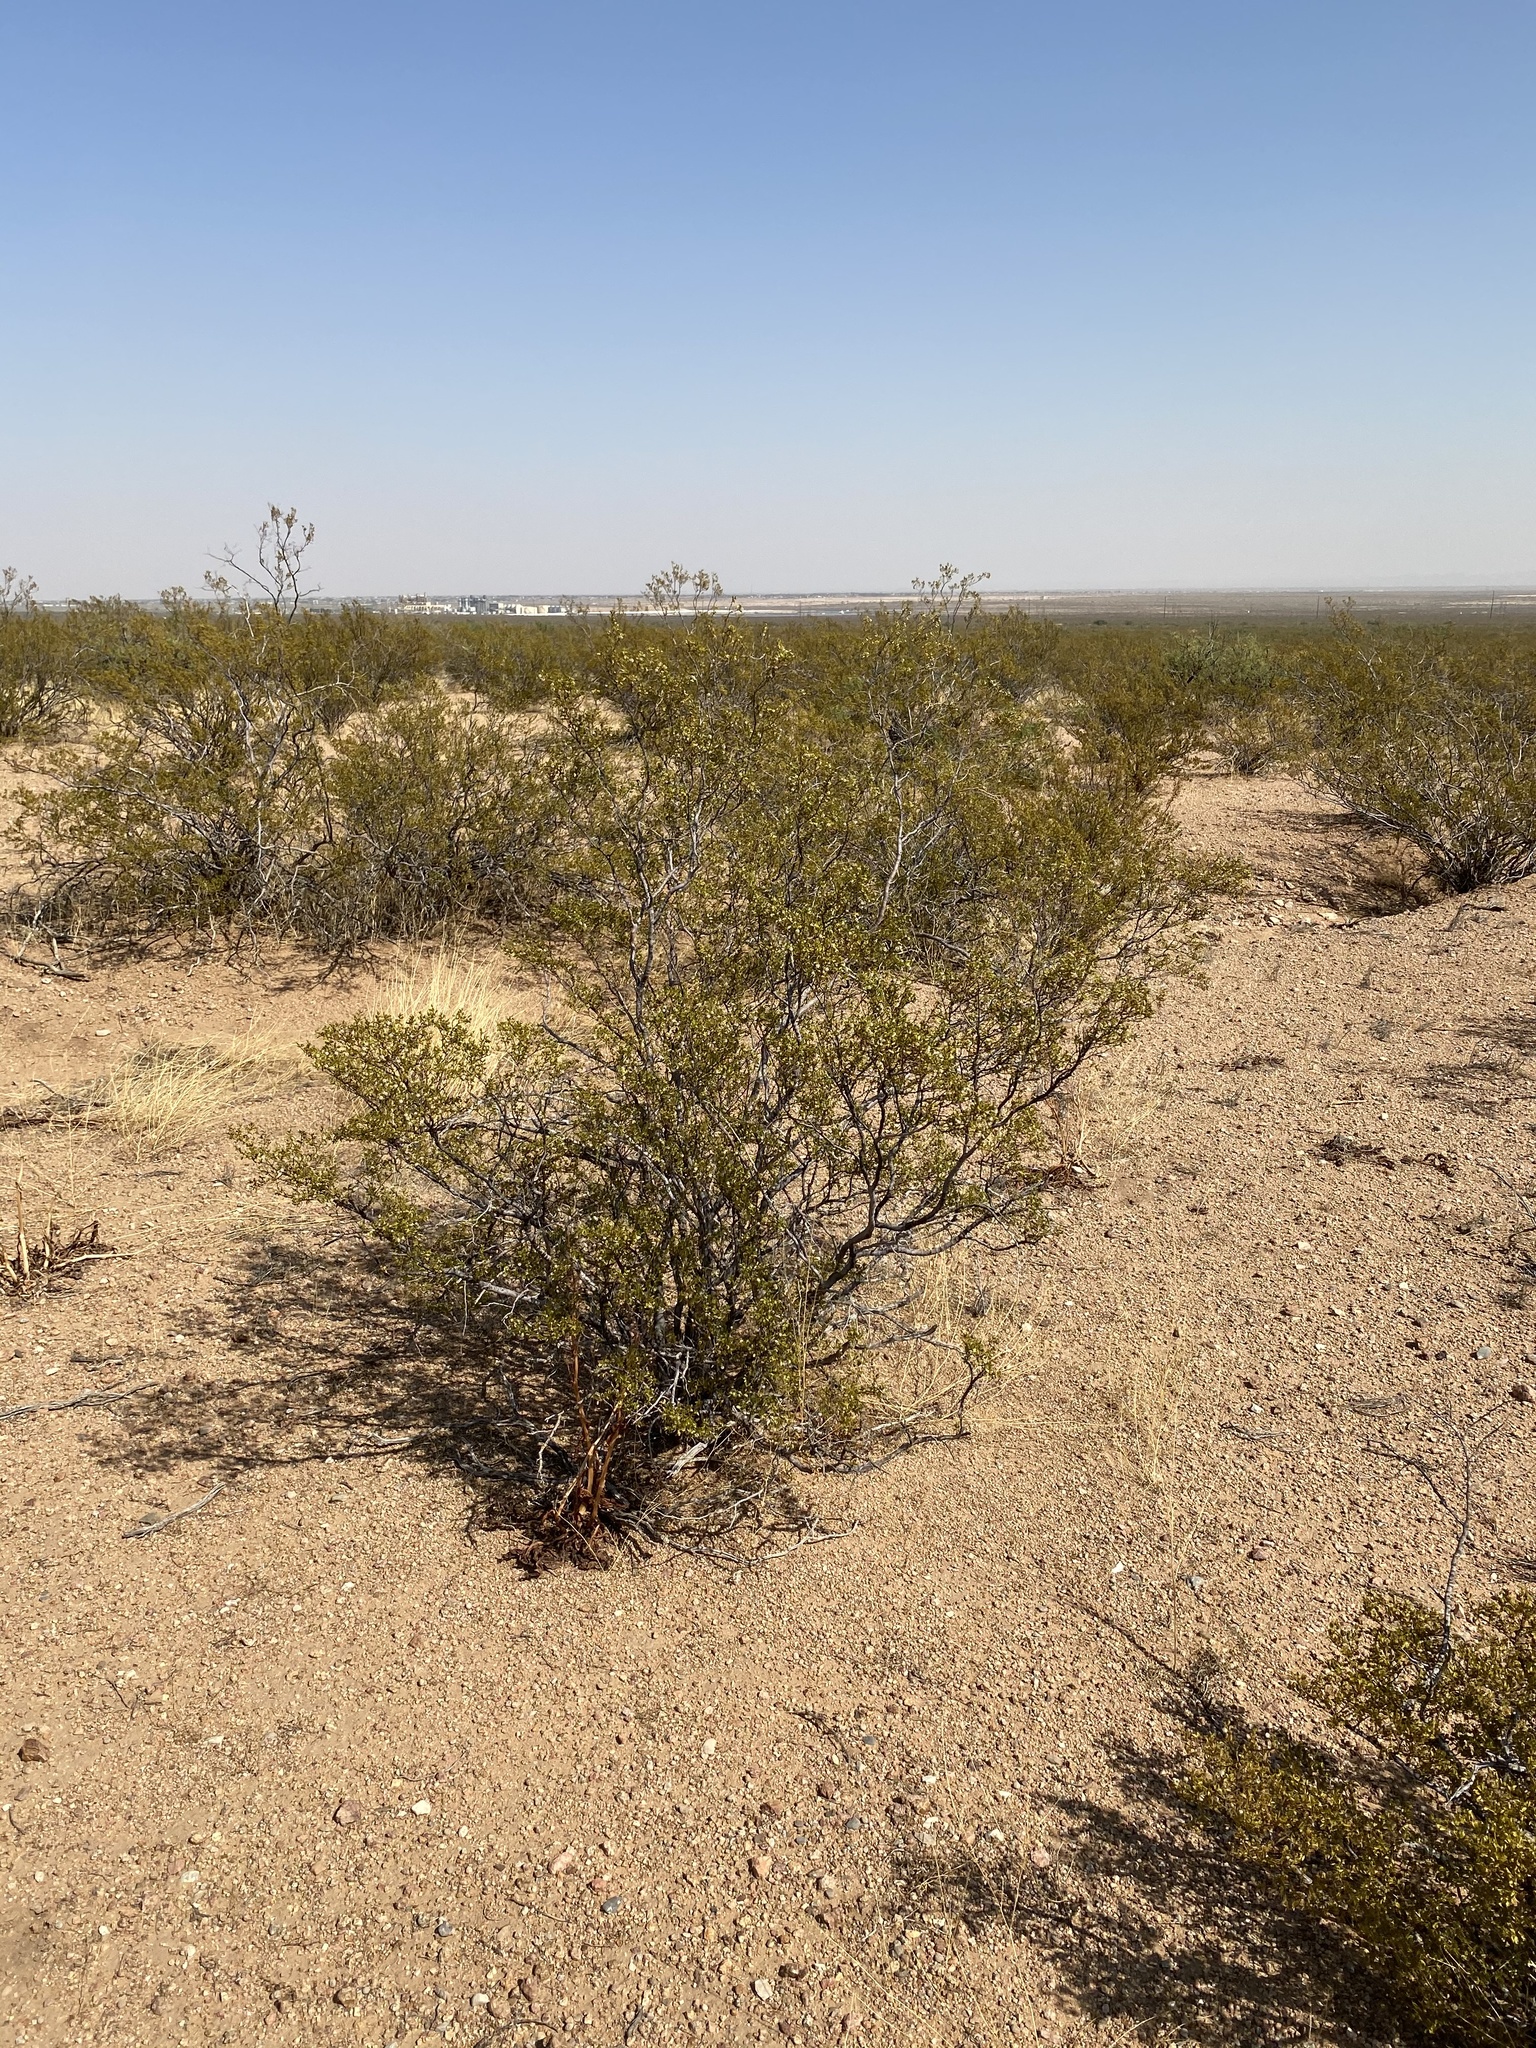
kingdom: Plantae
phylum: Tracheophyta
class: Magnoliopsida
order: Zygophyllales
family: Zygophyllaceae
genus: Larrea
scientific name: Larrea tridentata
